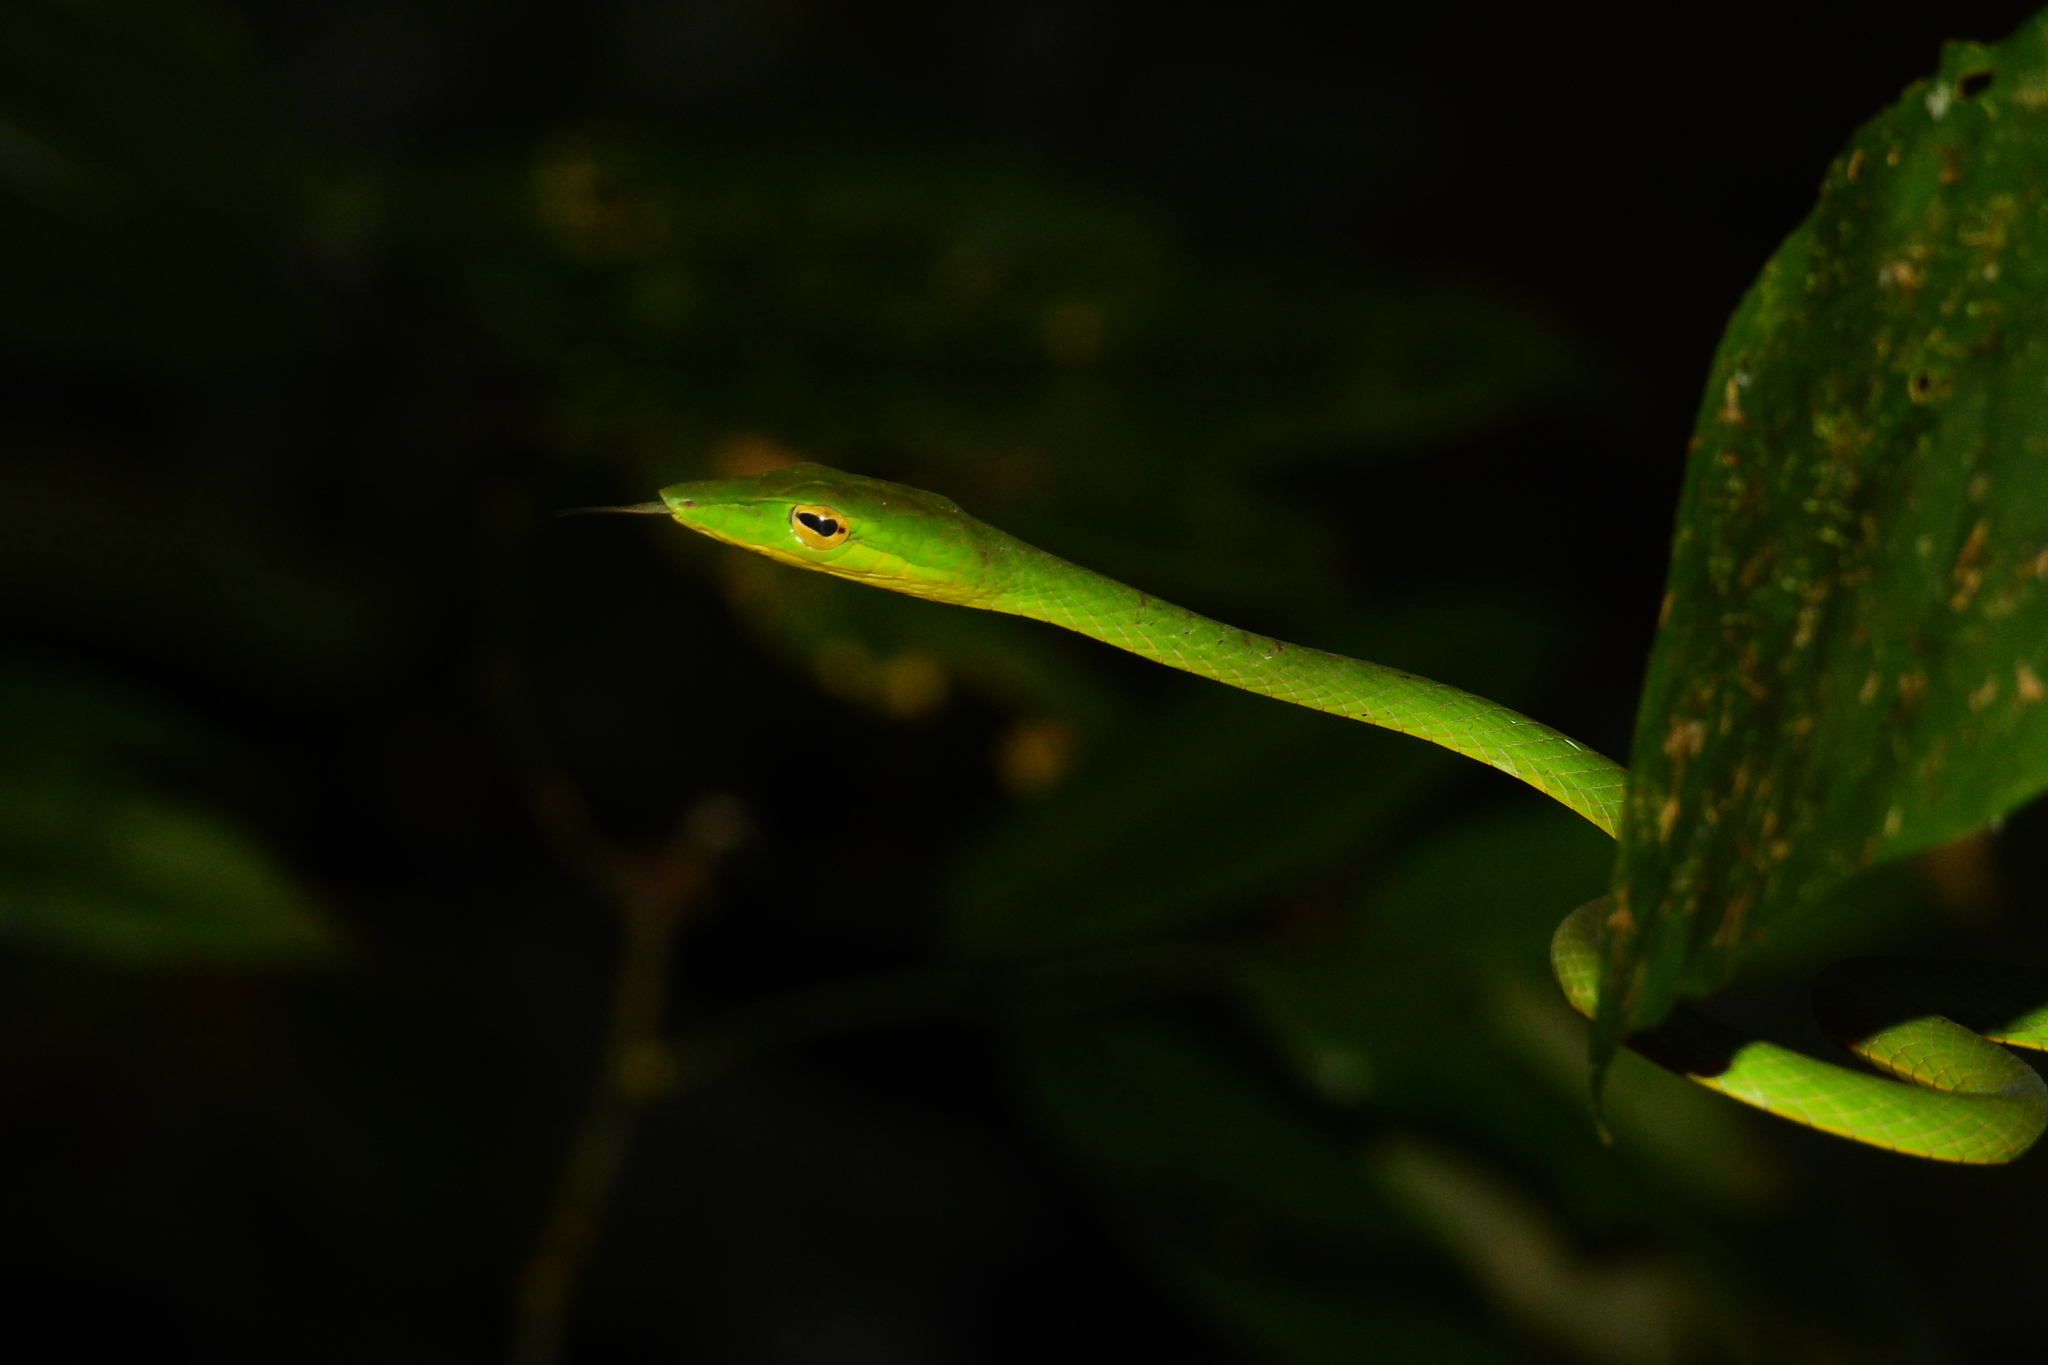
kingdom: Animalia
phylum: Chordata
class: Squamata
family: Colubridae
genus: Ahaetulla
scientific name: Ahaetulla prasina
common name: Oriental whip snake
